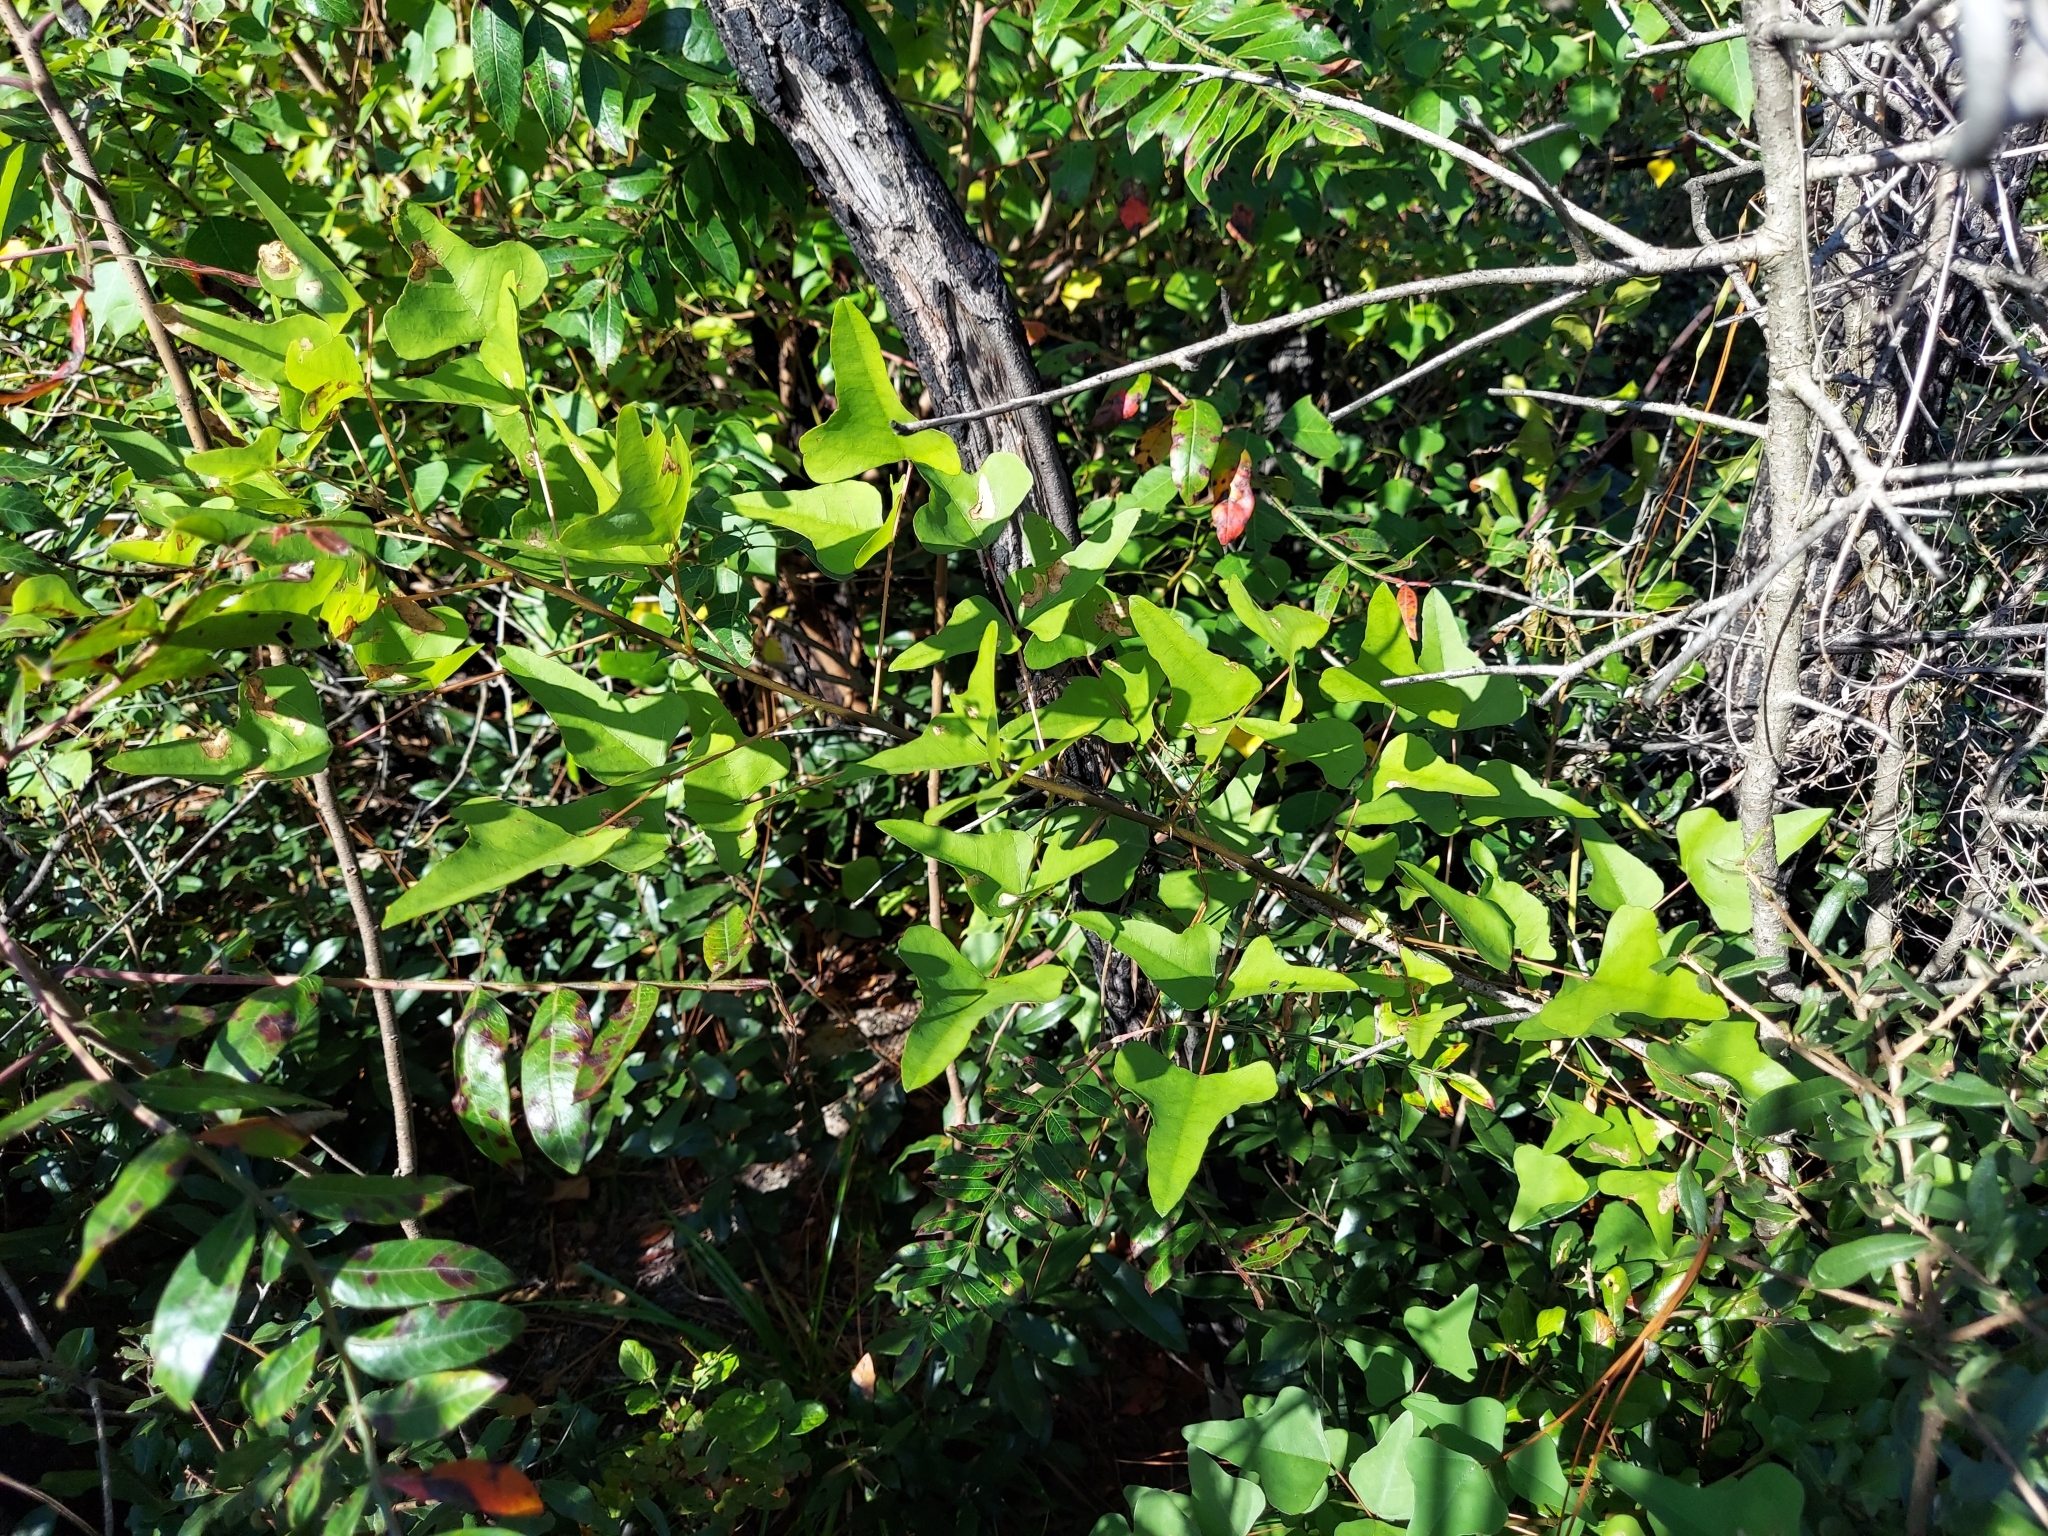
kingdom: Plantae
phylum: Tracheophyta
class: Magnoliopsida
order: Fabales
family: Fabaceae
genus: Erythrina
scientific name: Erythrina herbacea
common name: Coral-bean
